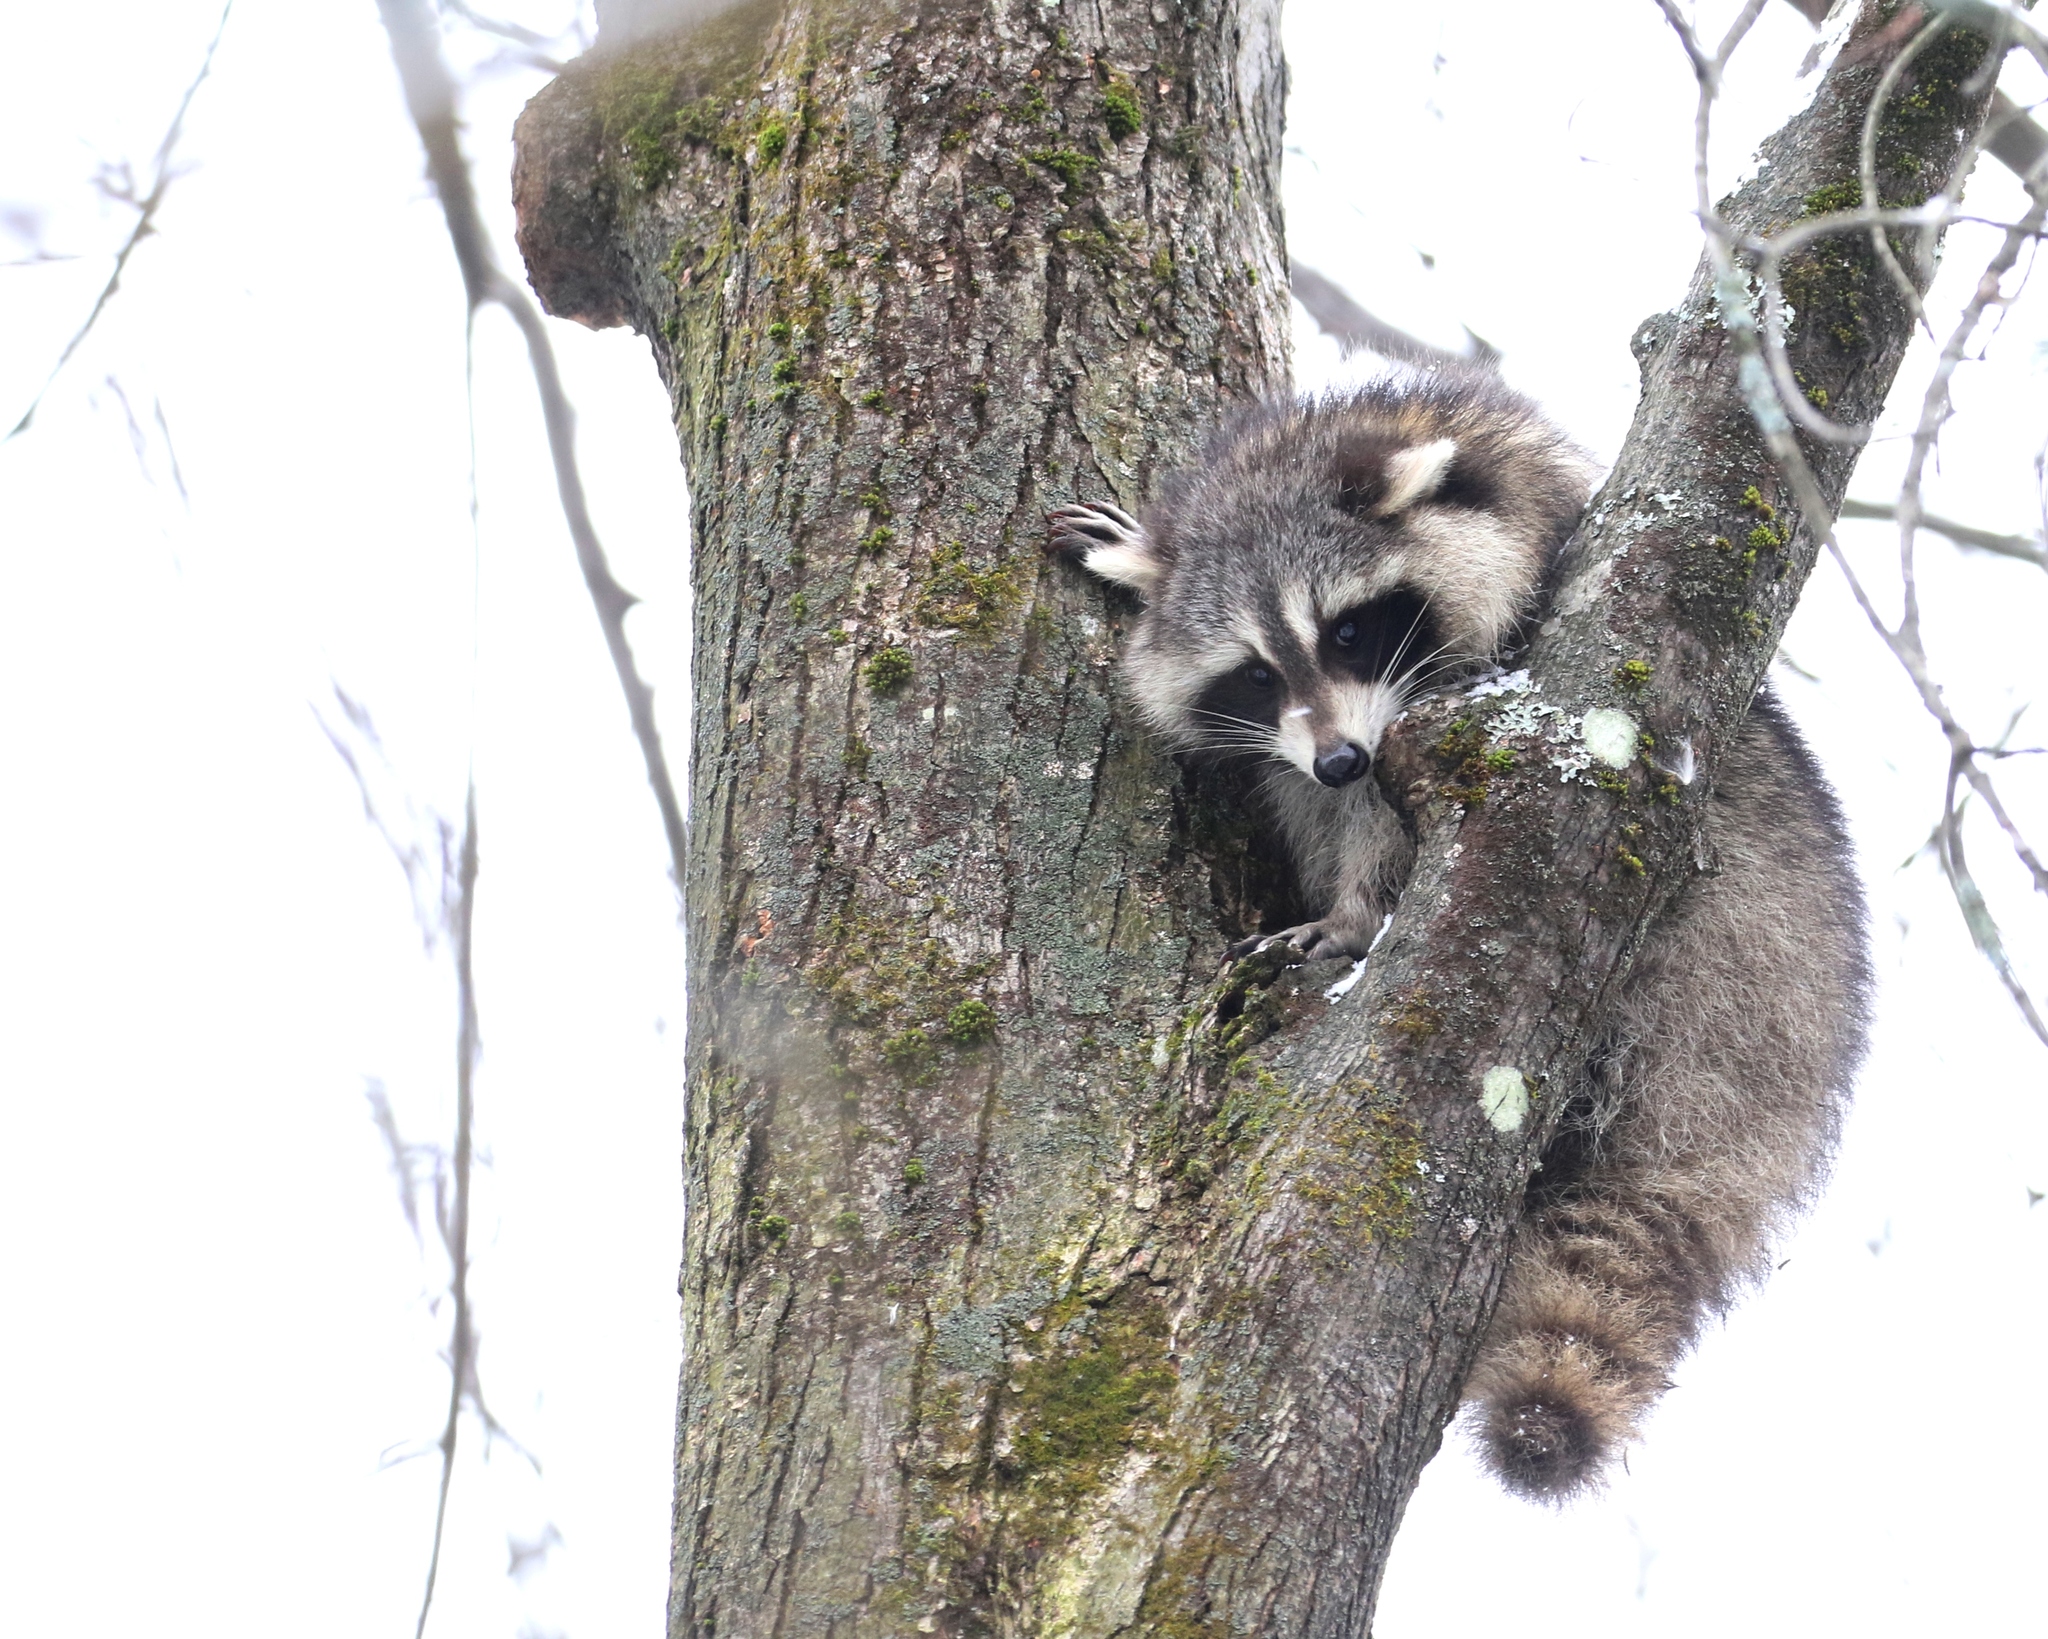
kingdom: Animalia
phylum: Chordata
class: Mammalia
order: Carnivora
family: Procyonidae
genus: Procyon
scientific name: Procyon lotor
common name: Raccoon
